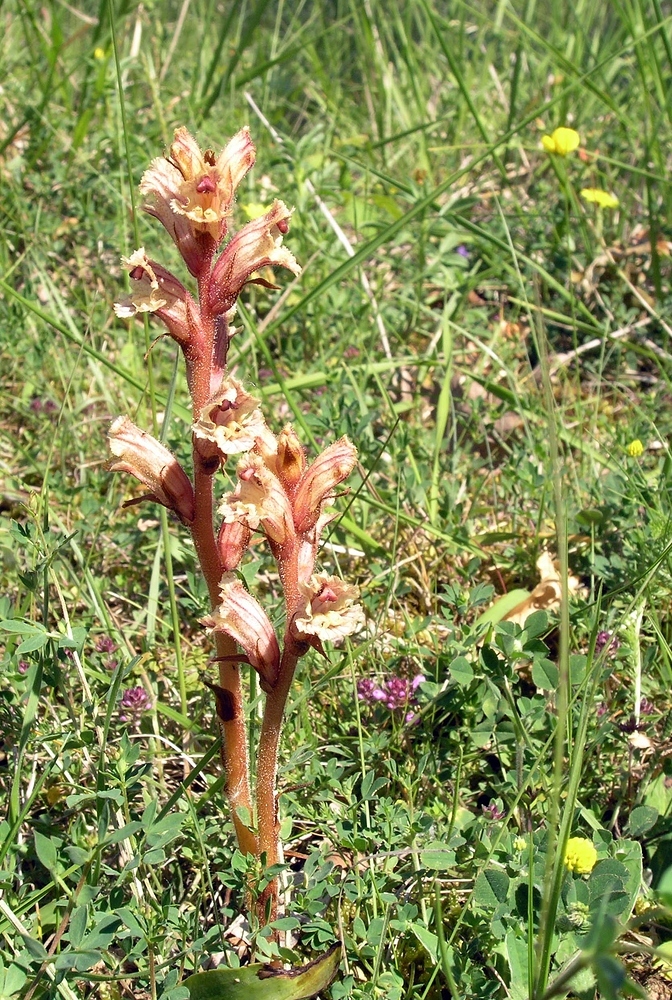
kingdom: Plantae
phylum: Tracheophyta
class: Magnoliopsida
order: Lamiales
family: Orobanchaceae
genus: Orobanche
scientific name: Orobanche alba
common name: Thyme broomrape
